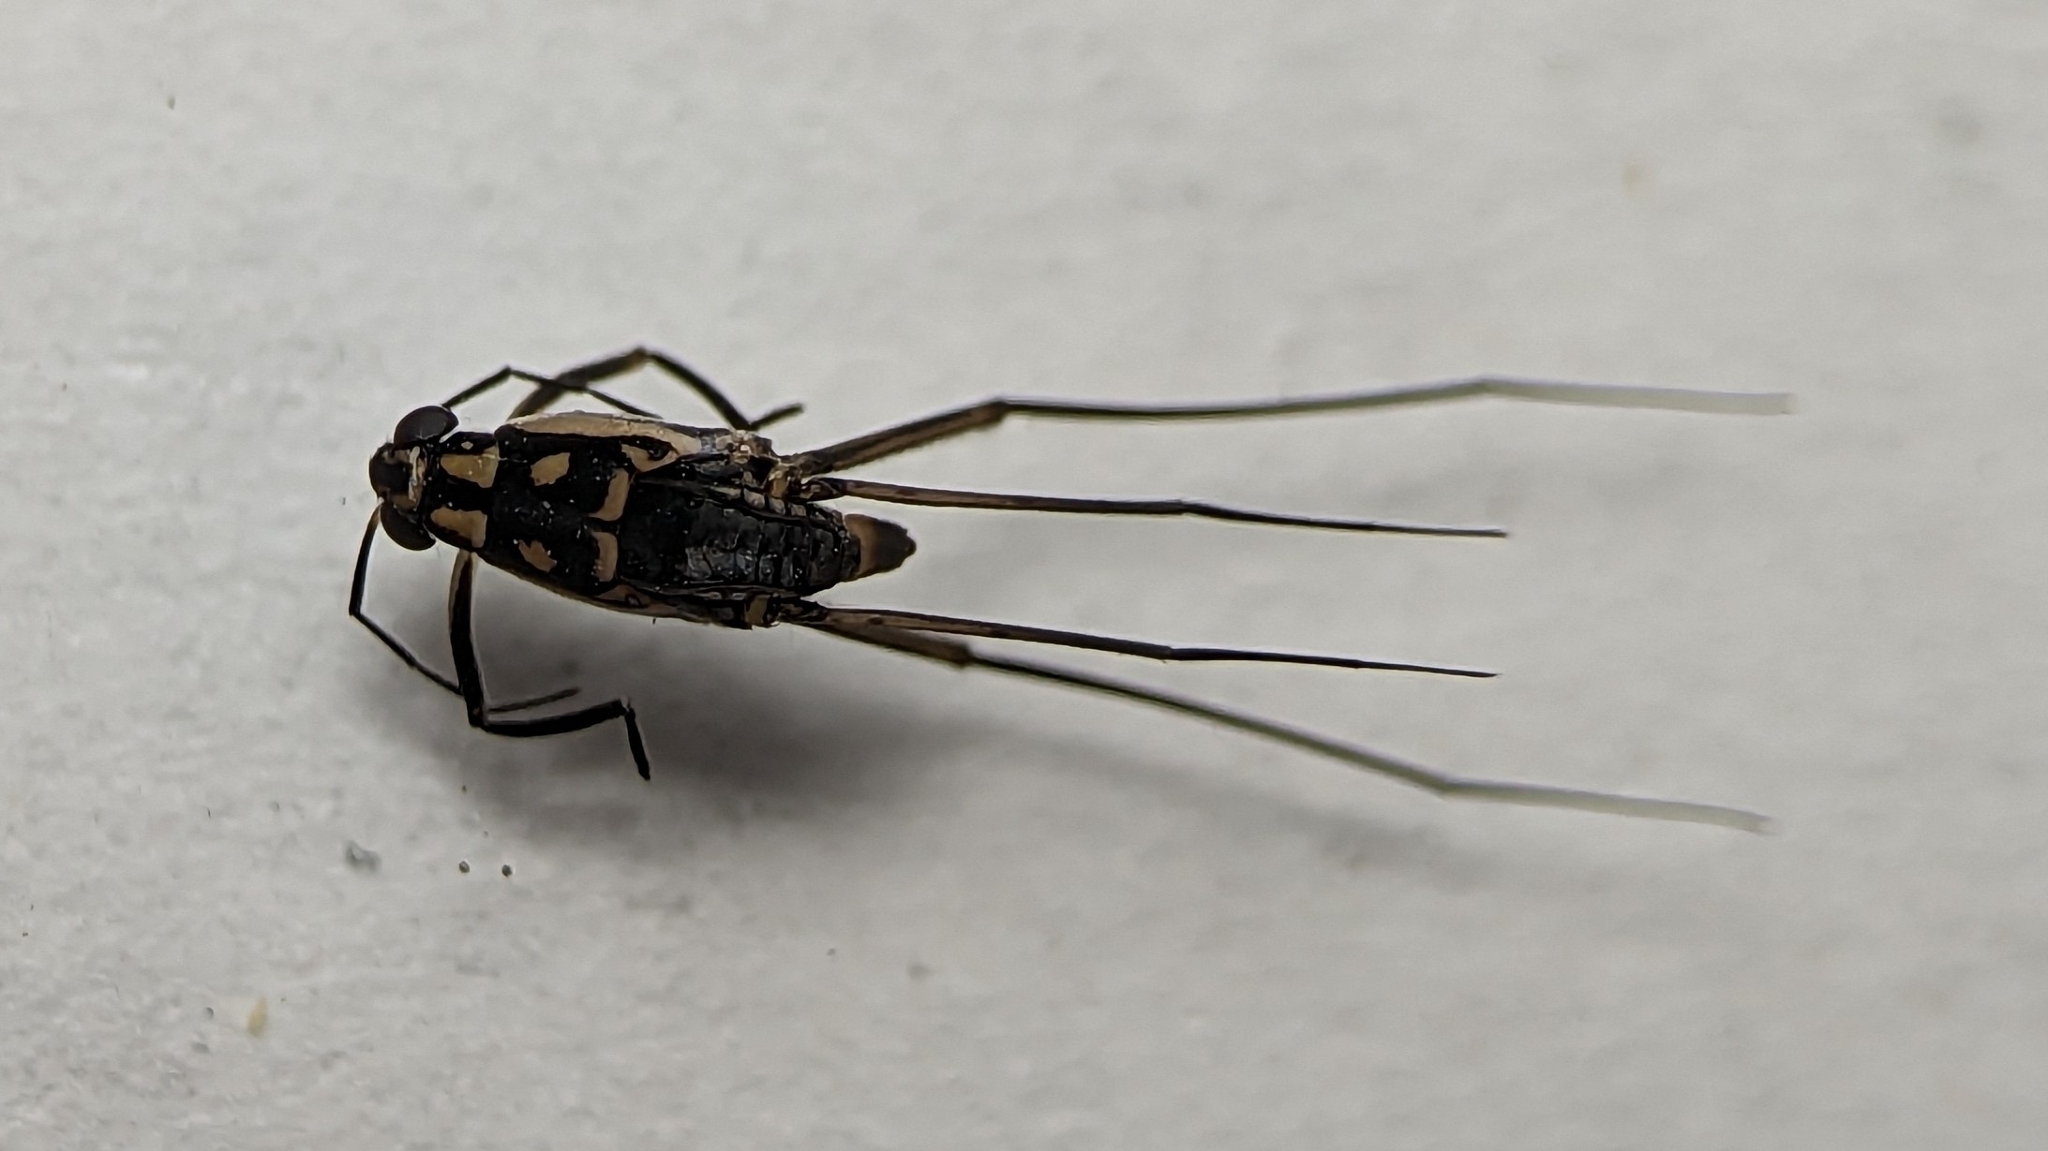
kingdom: Animalia
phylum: Arthropoda
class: Insecta
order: Hemiptera
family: Gerridae
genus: Trepobates
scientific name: Trepobates
